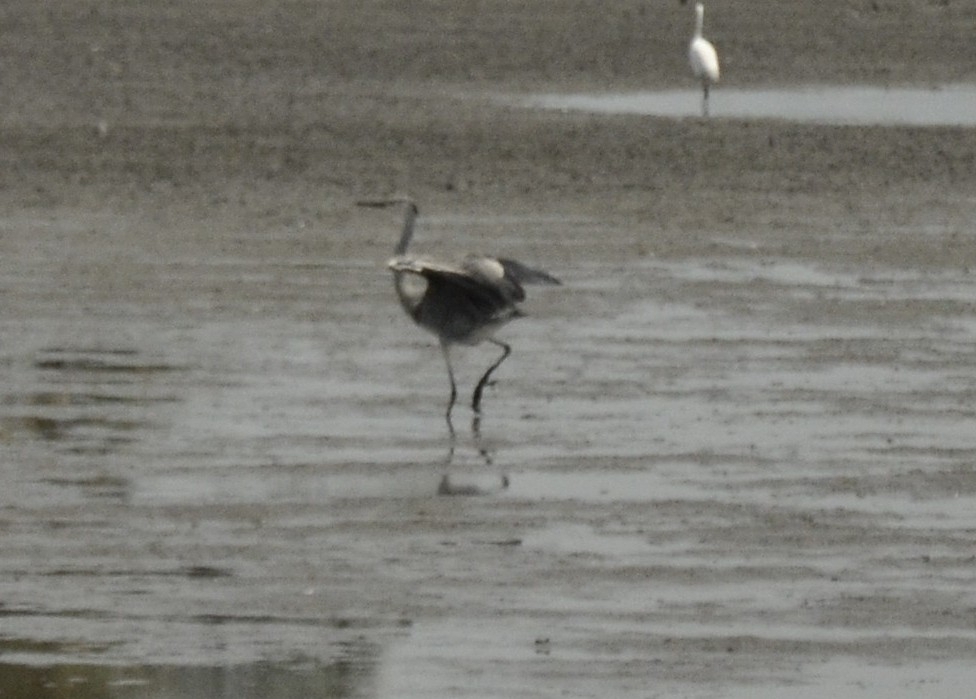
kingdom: Animalia
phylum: Chordata
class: Aves
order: Pelecaniformes
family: Ardeidae
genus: Ardea
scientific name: Ardea cinerea
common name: Grey heron
